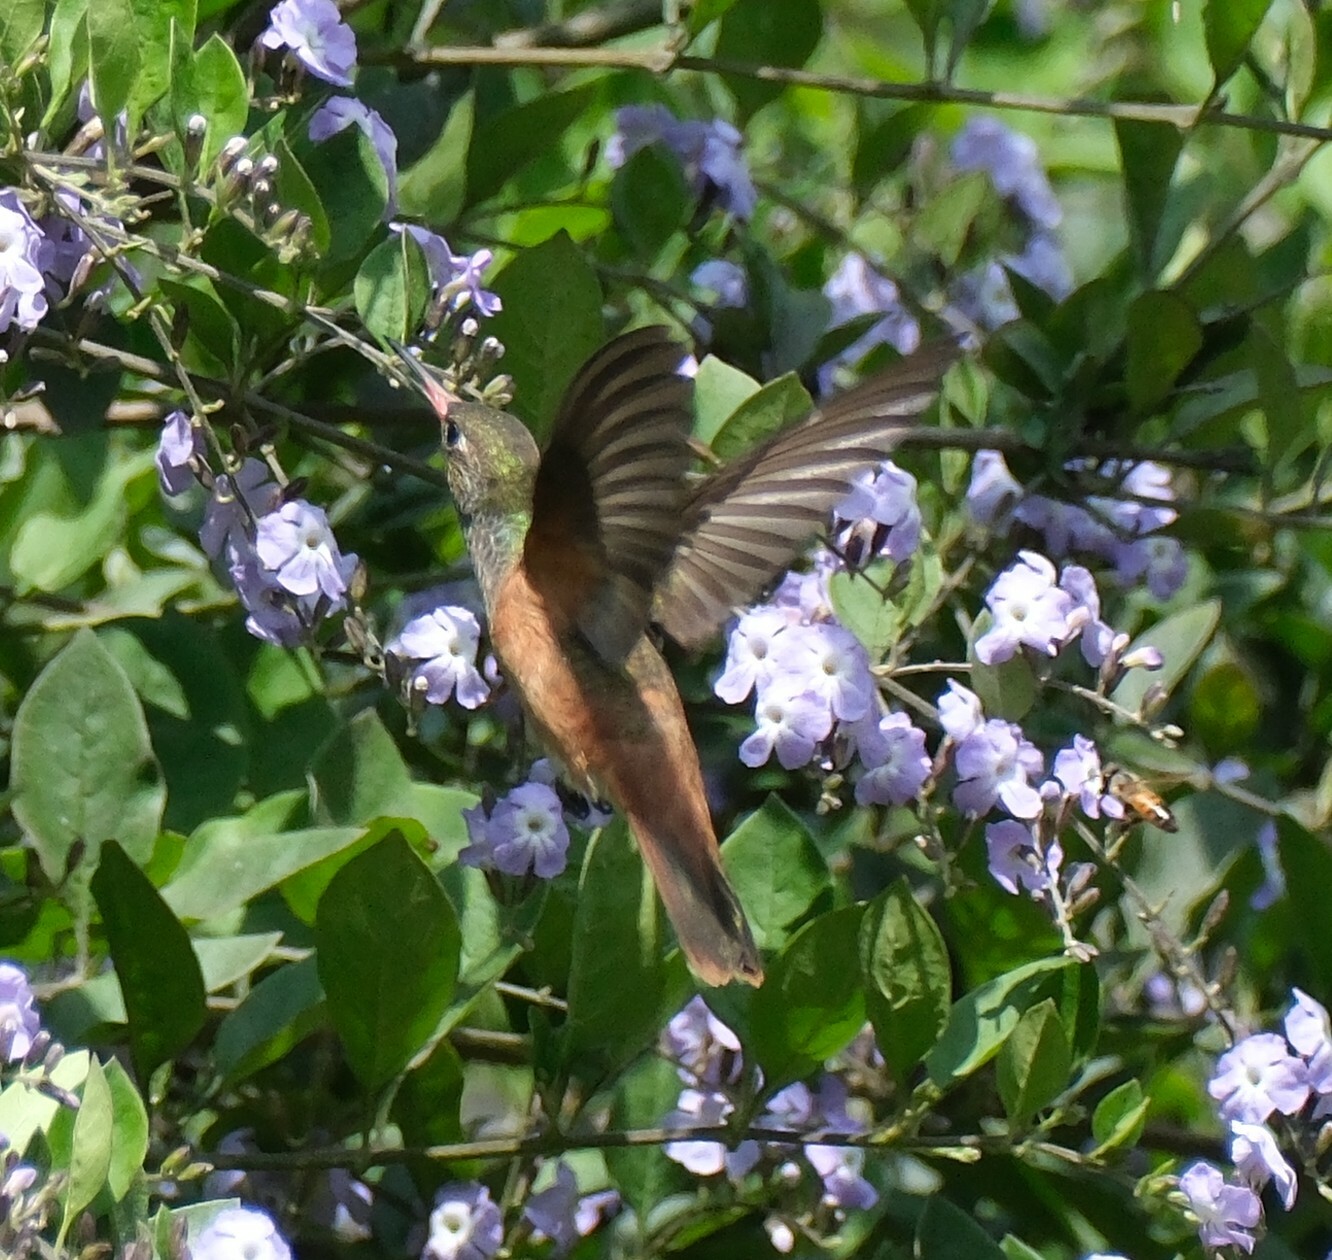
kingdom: Animalia
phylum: Chordata
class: Aves
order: Apodiformes
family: Trochilidae
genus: Amazilis
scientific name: Amazilis amazilia
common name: Amazilia hummingbird
